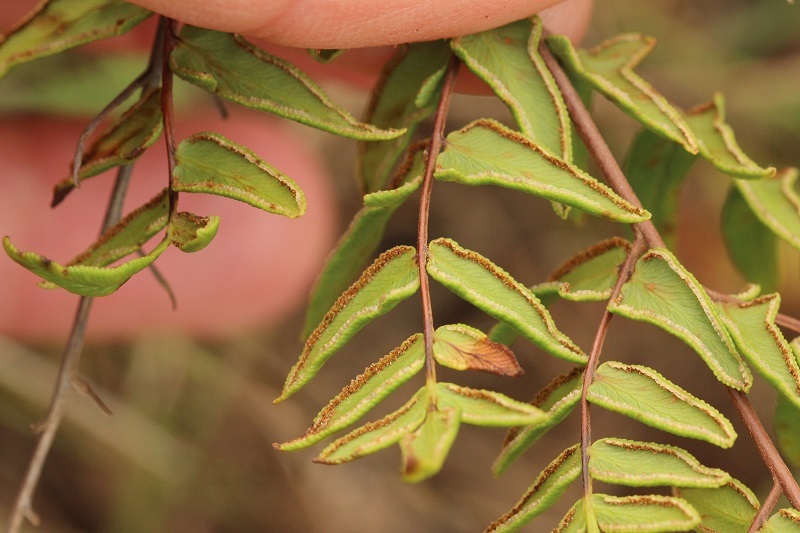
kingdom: Plantae
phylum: Tracheophyta
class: Polypodiopsida
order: Polypodiales
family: Pteridaceae
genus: Cheilanthes
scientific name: Cheilanthes viridis
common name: Green cliffbrake
